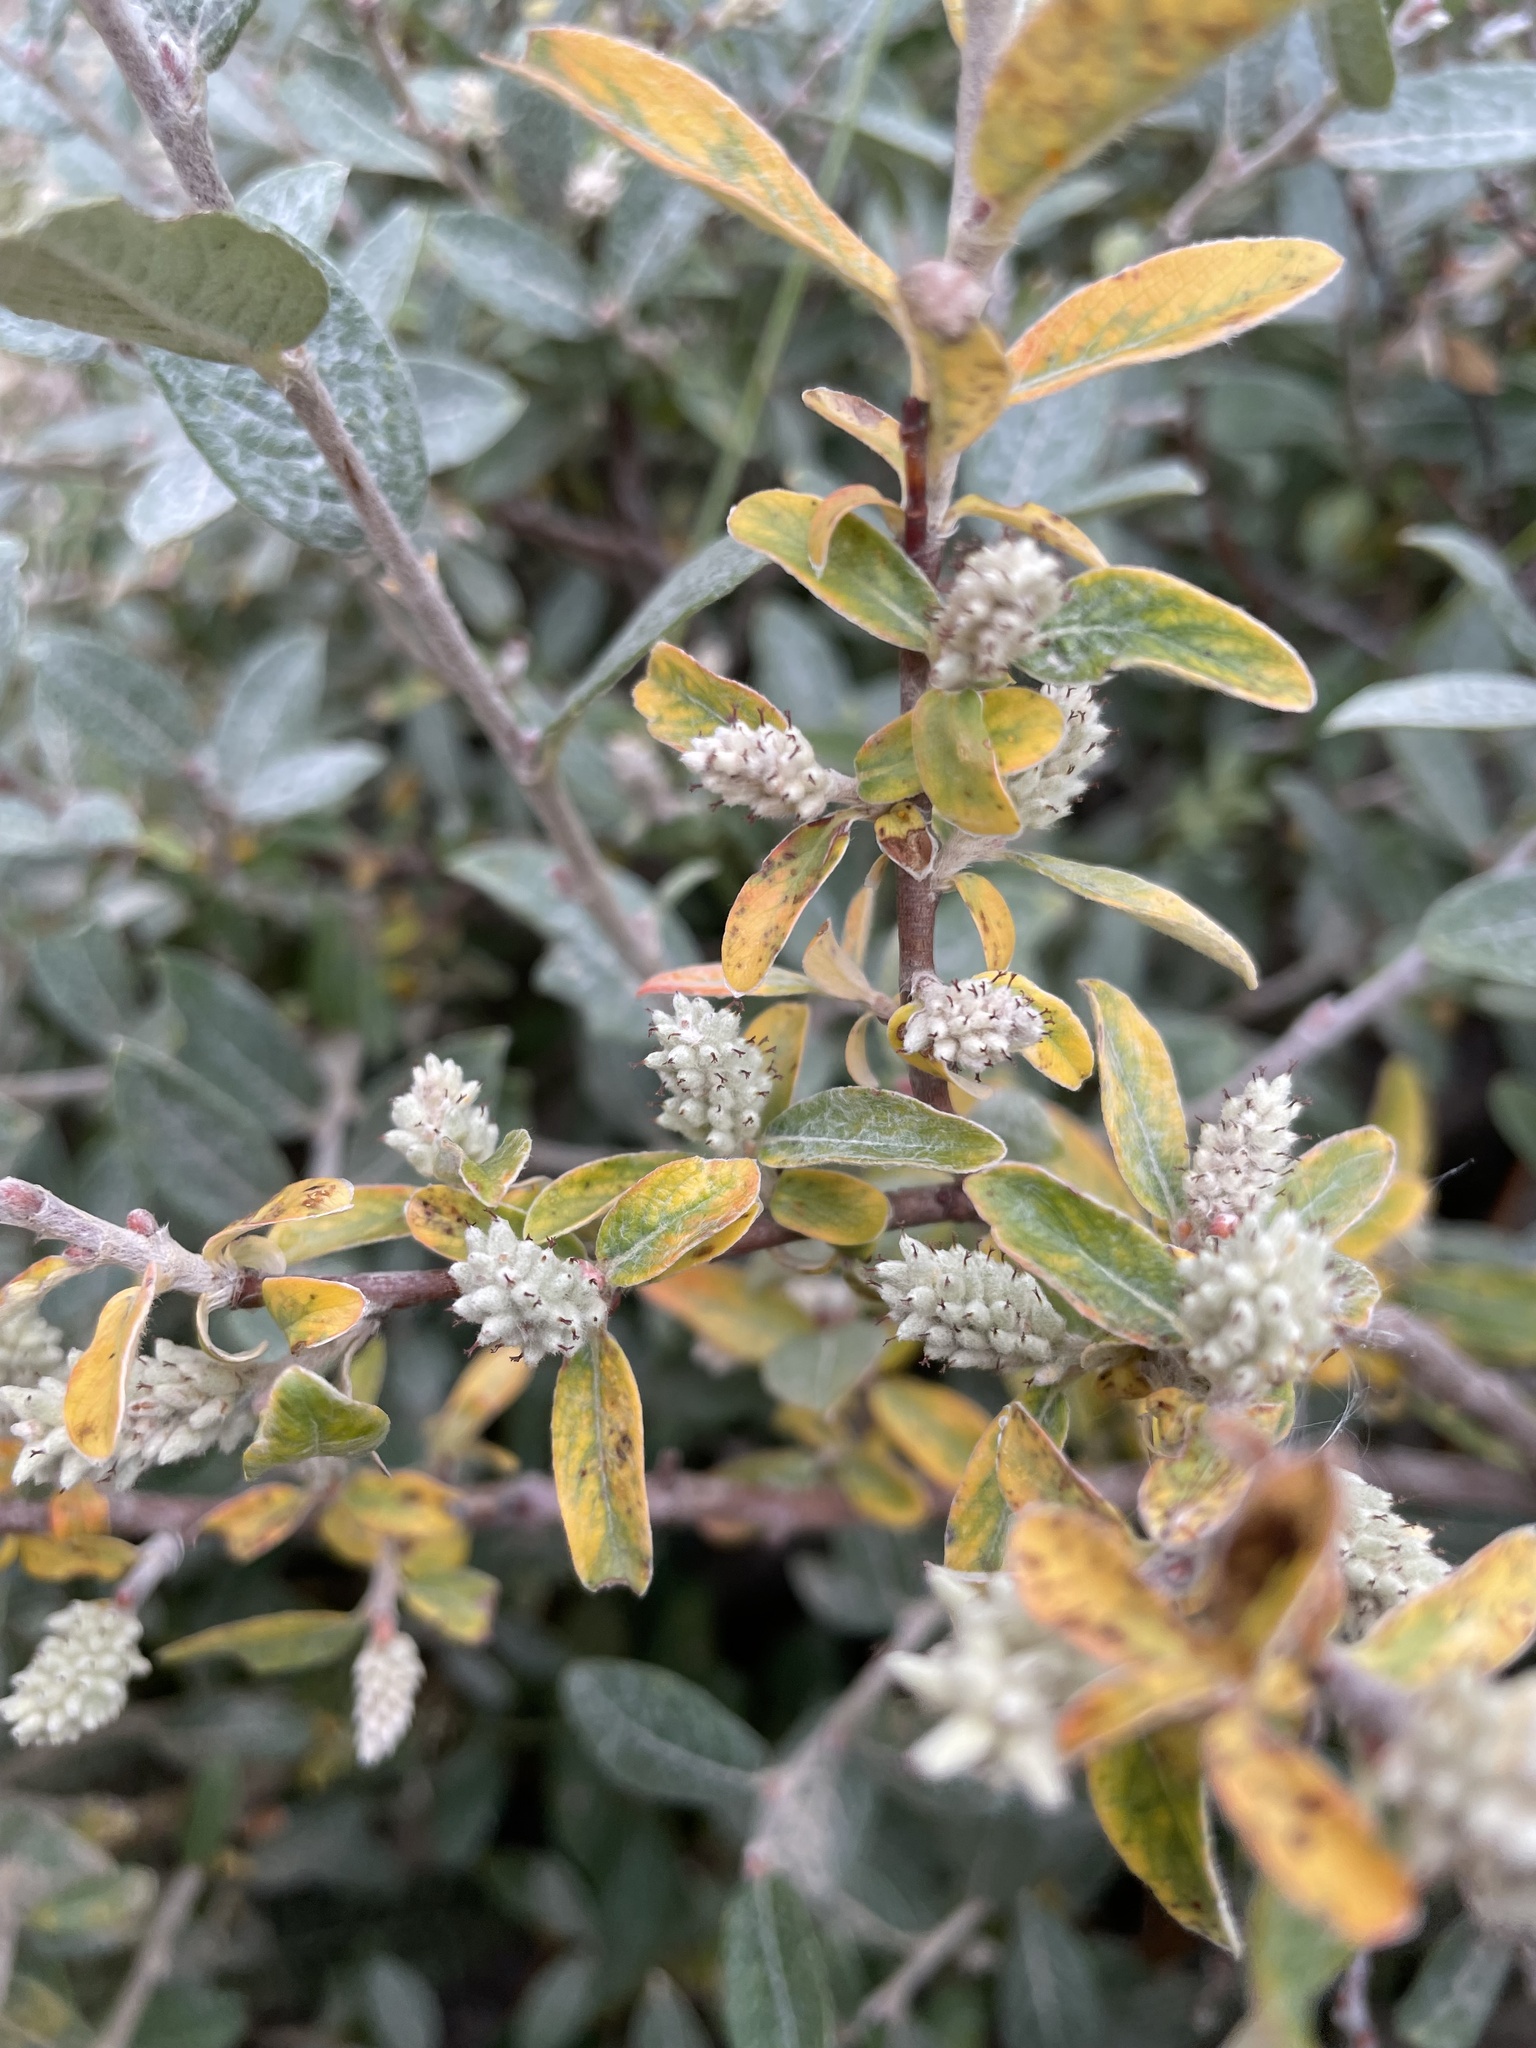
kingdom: Plantae
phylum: Tracheophyta
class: Magnoliopsida
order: Malpighiales
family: Salicaceae
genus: Salix
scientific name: Salix brachycarpa
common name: Barren-ground willow
